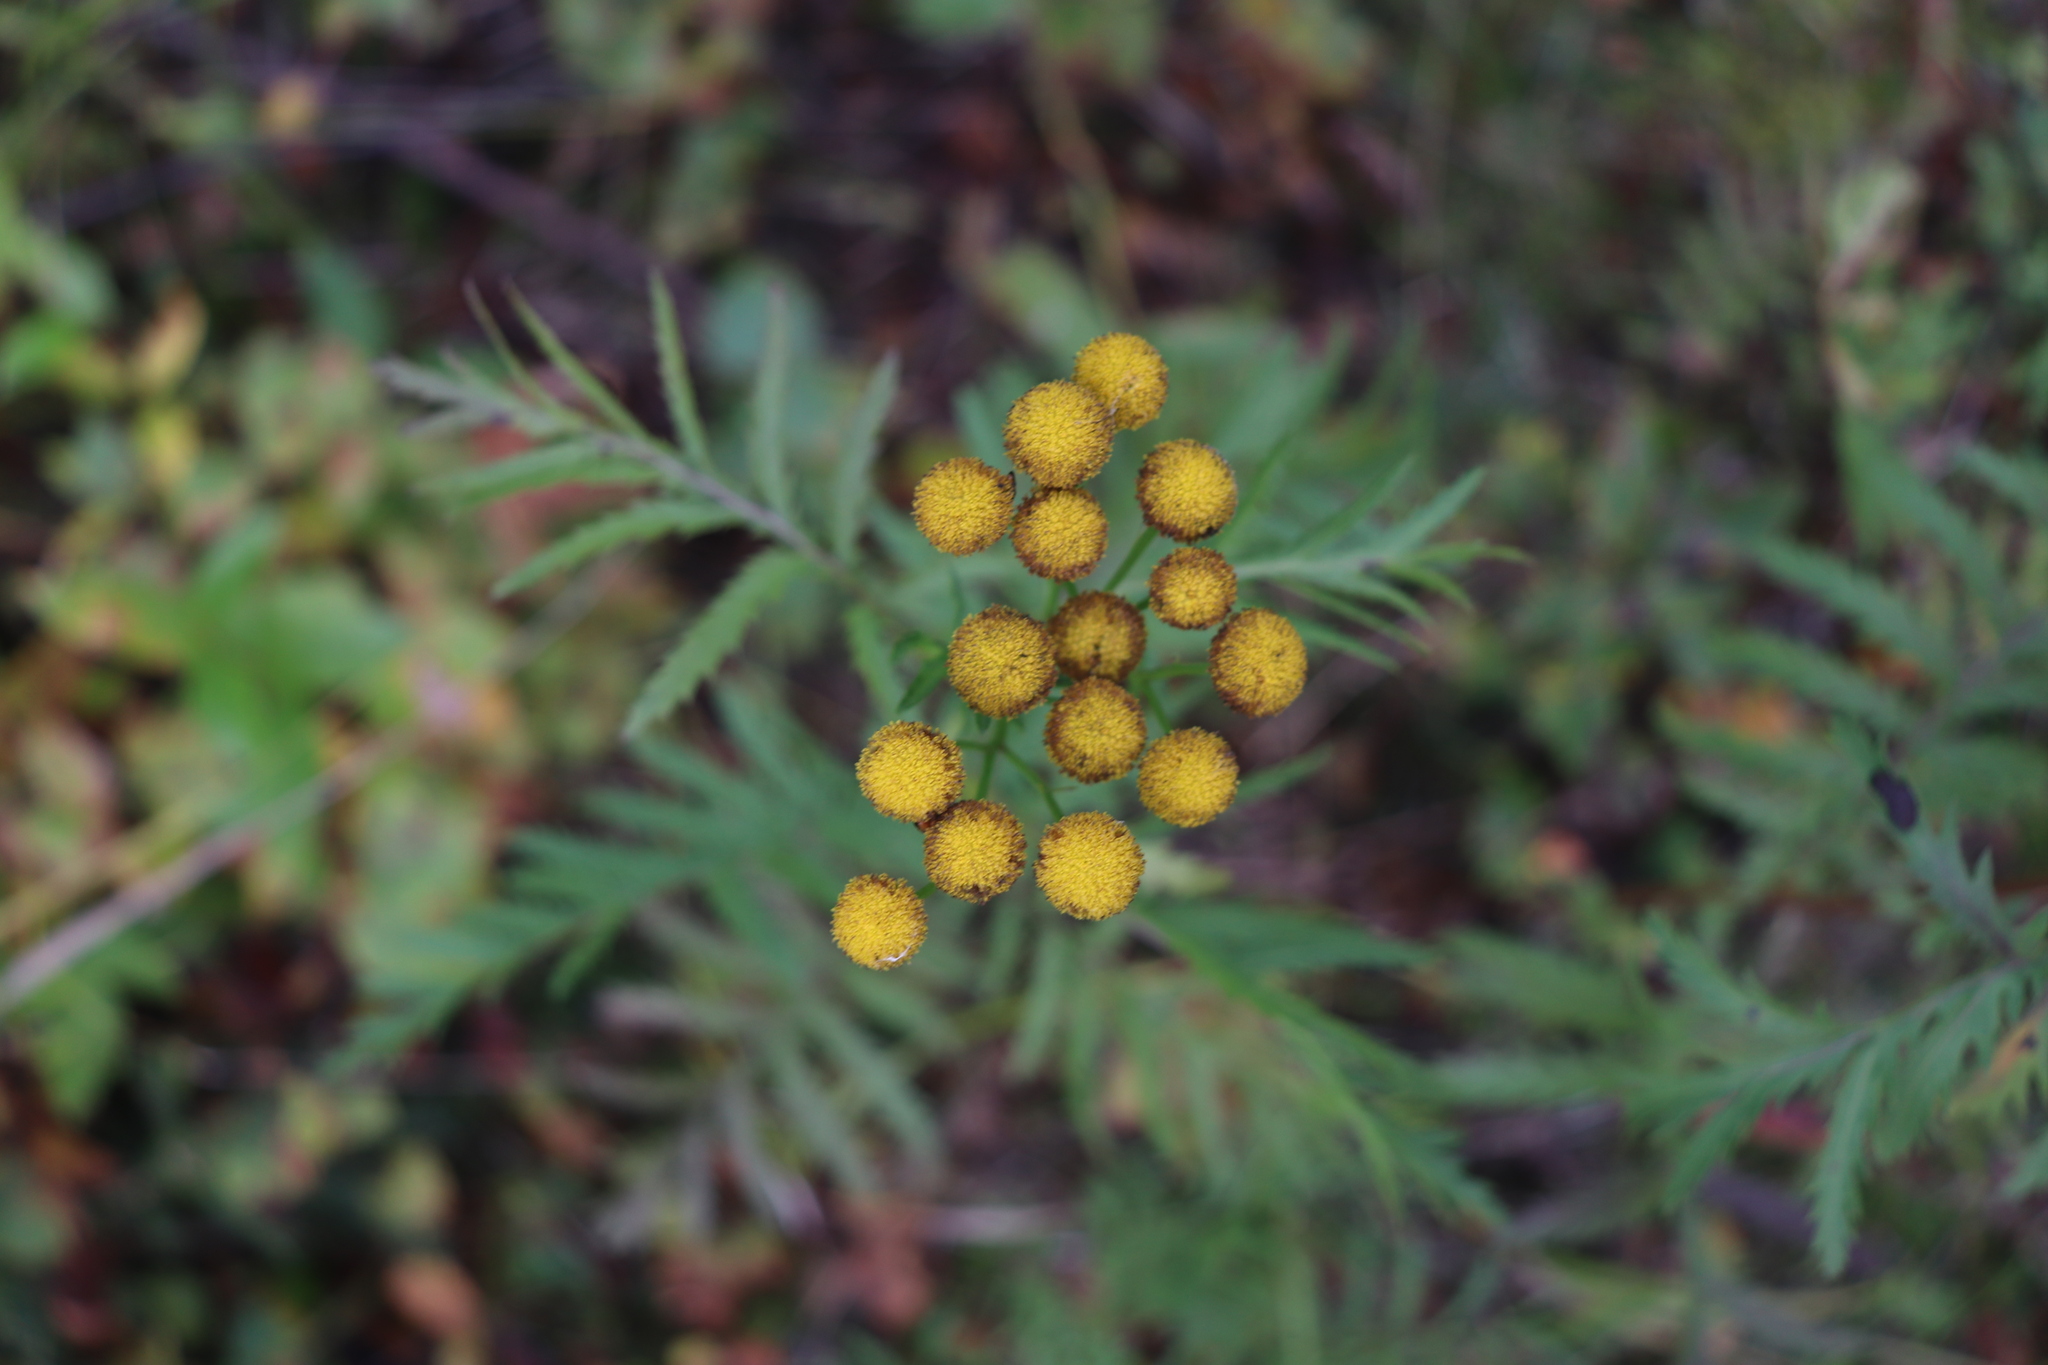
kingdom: Plantae
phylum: Tracheophyta
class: Magnoliopsida
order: Asterales
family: Asteraceae
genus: Tanacetum
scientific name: Tanacetum vulgare
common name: Common tansy
